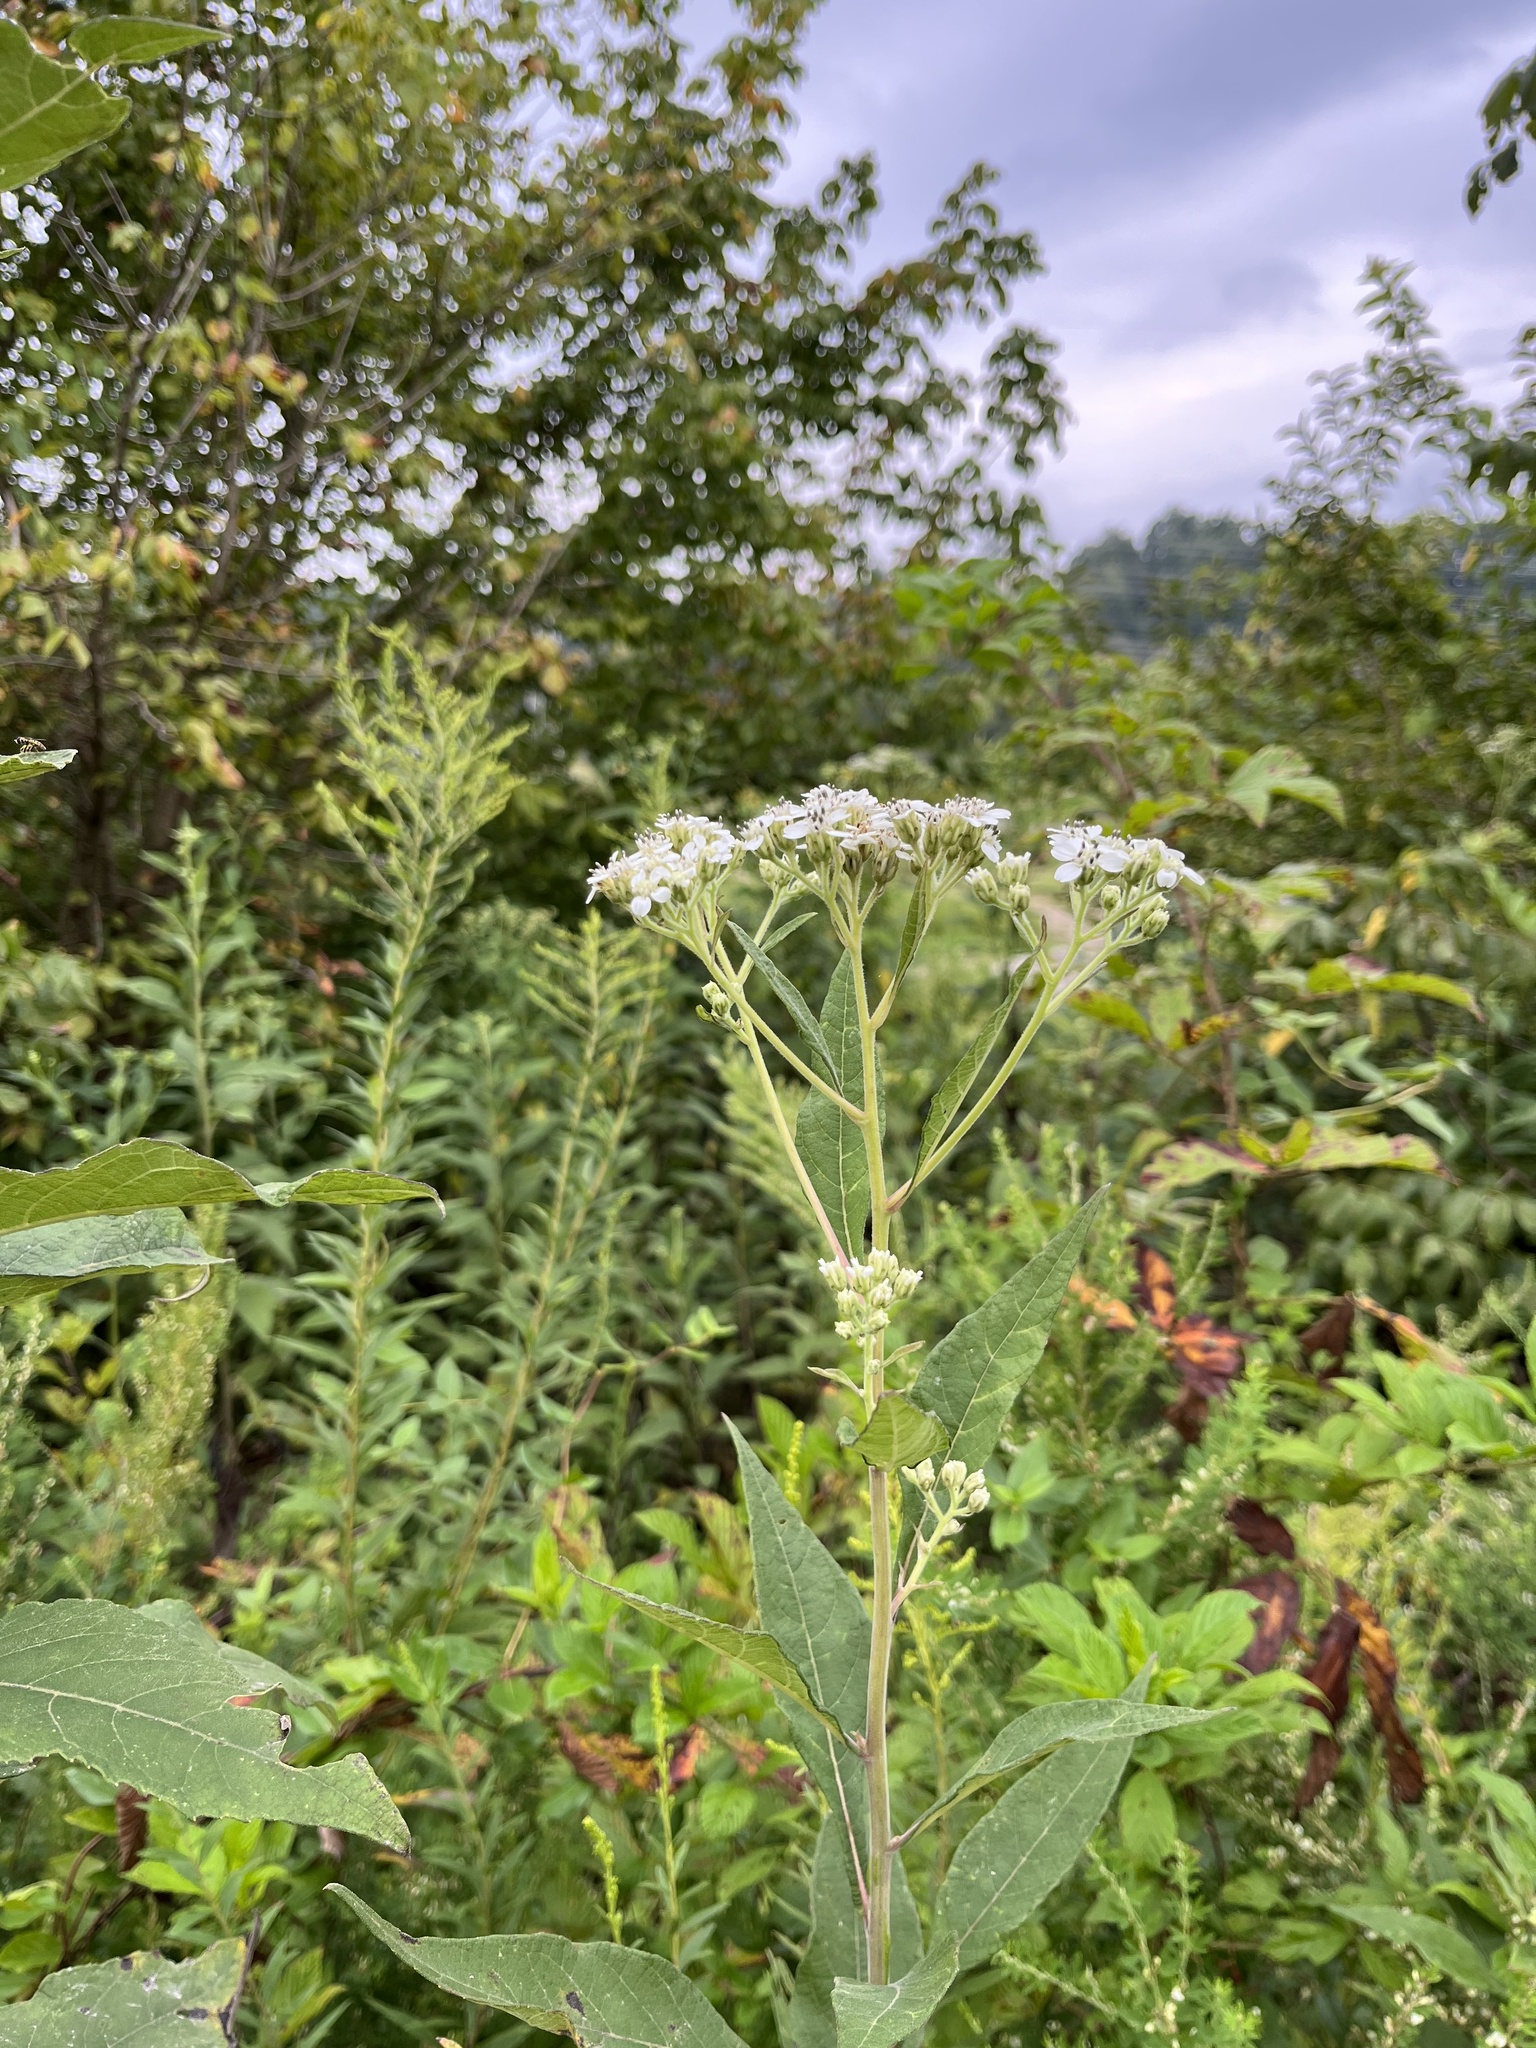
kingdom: Plantae
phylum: Tracheophyta
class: Magnoliopsida
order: Asterales
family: Asteraceae
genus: Verbesina
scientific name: Verbesina virginica
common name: Frostweed
